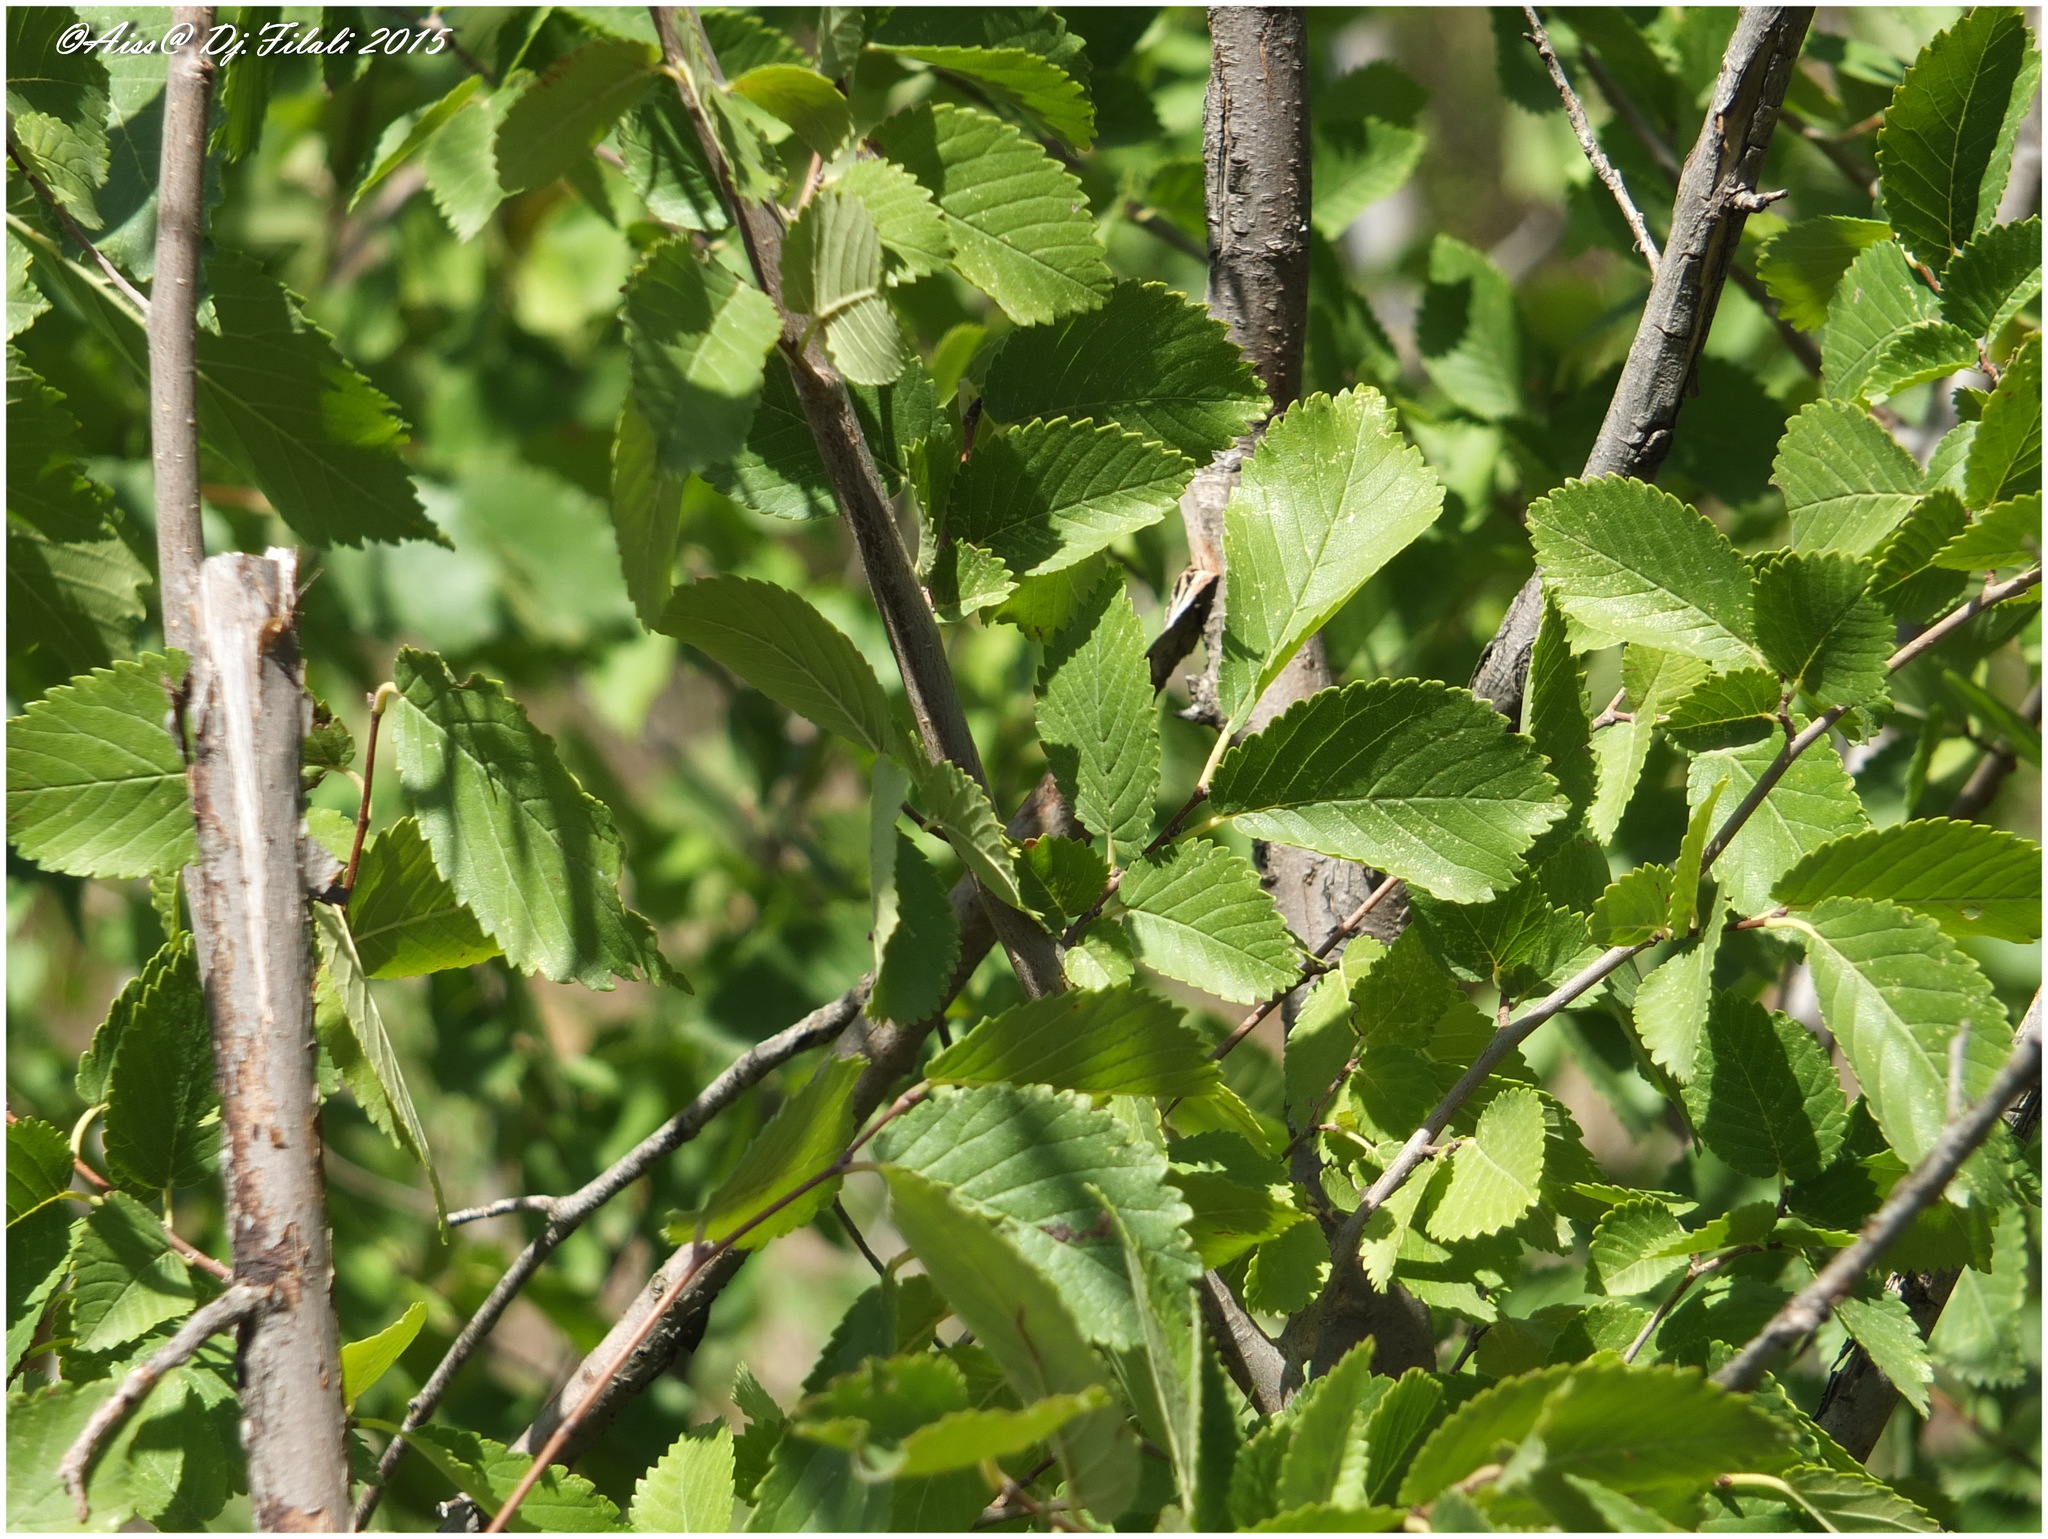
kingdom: Plantae
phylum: Tracheophyta
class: Magnoliopsida
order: Rosales
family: Ulmaceae
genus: Ulmus
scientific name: Ulmus minor
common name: Small-leaved elm
